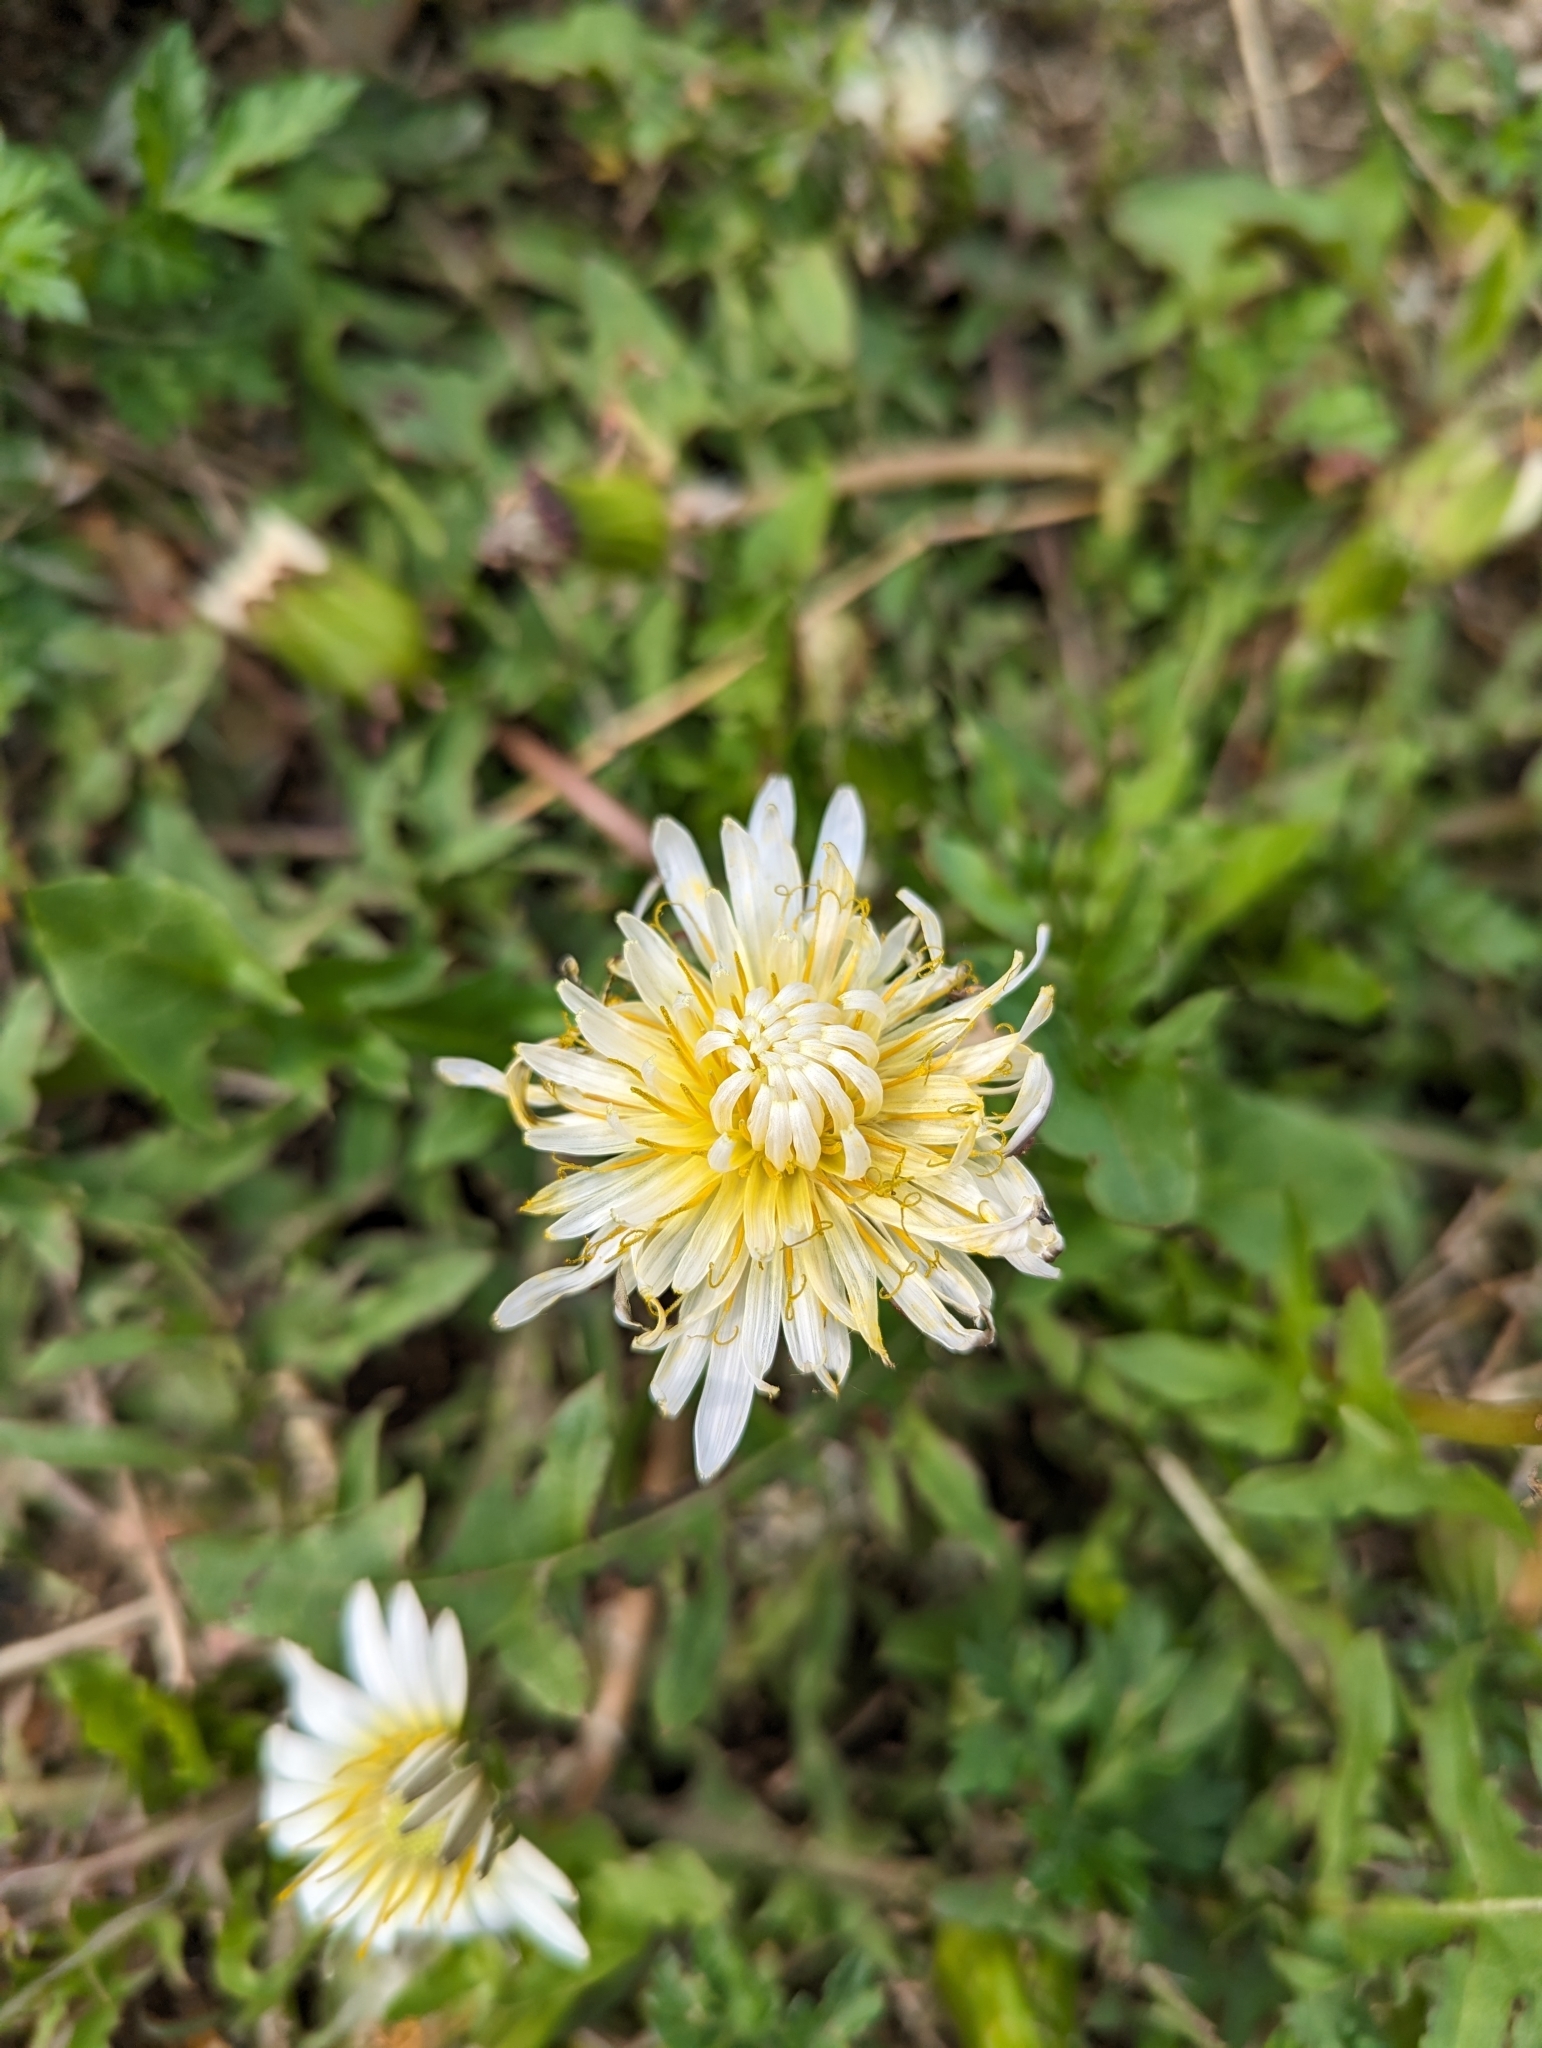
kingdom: Plantae
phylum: Tracheophyta
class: Magnoliopsida
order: Asterales
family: Asteraceae
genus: Taraxacum
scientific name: Taraxacum albidum
